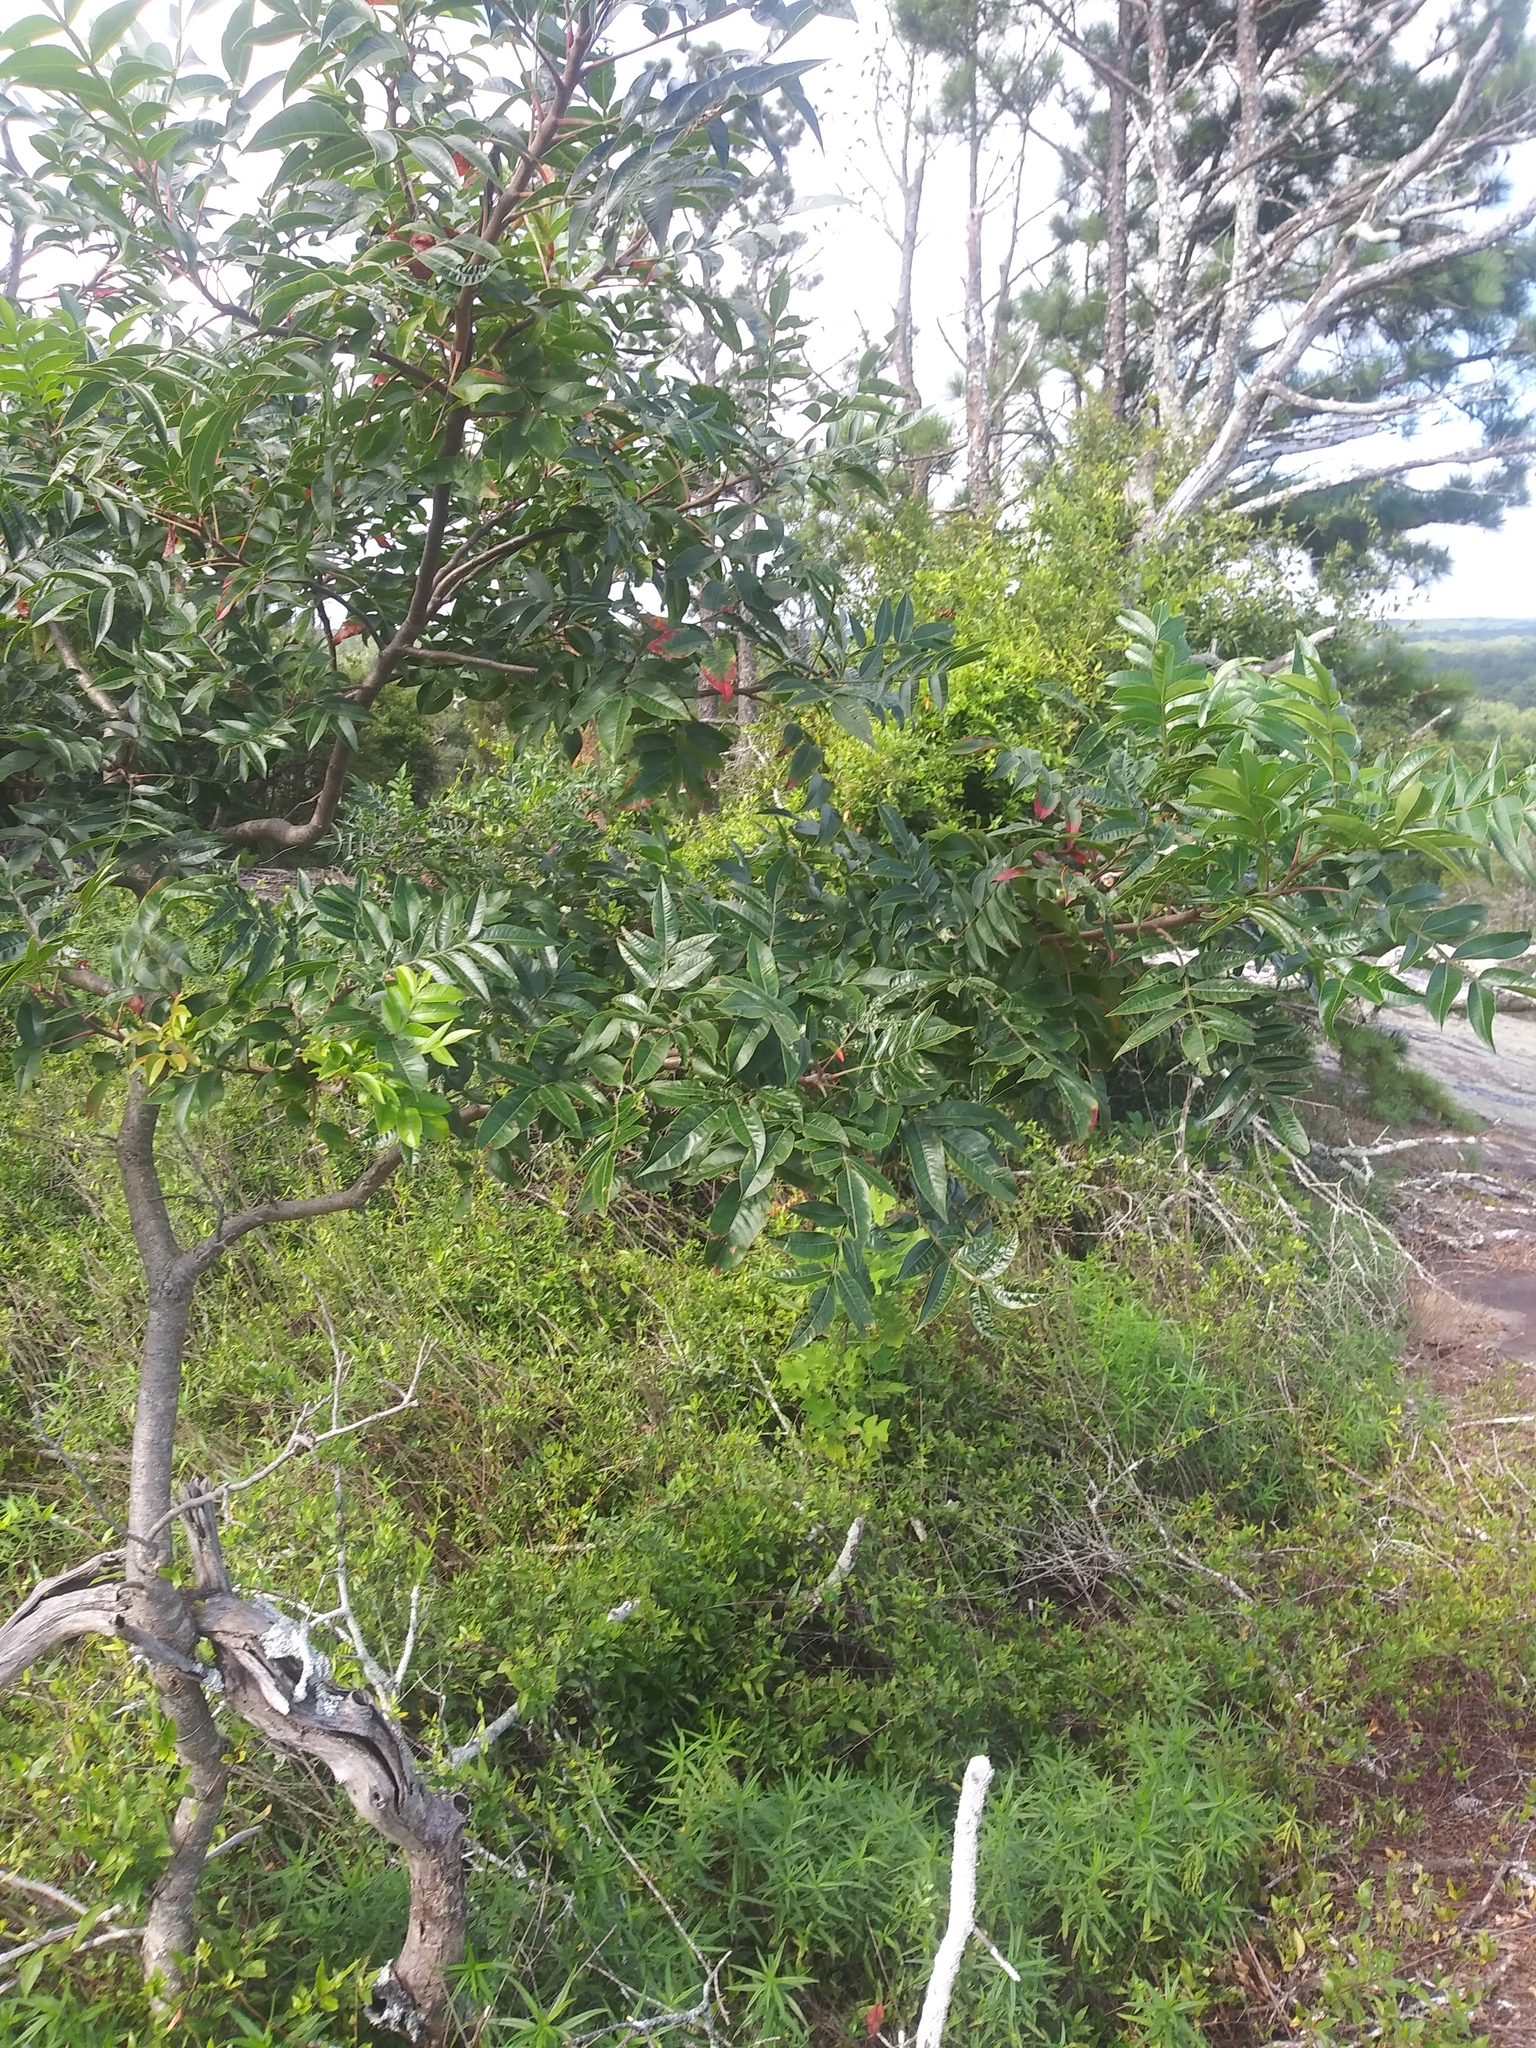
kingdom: Plantae
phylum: Tracheophyta
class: Magnoliopsida
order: Sapindales
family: Anacardiaceae
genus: Rhus
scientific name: Rhus copallina
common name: Shining sumac
